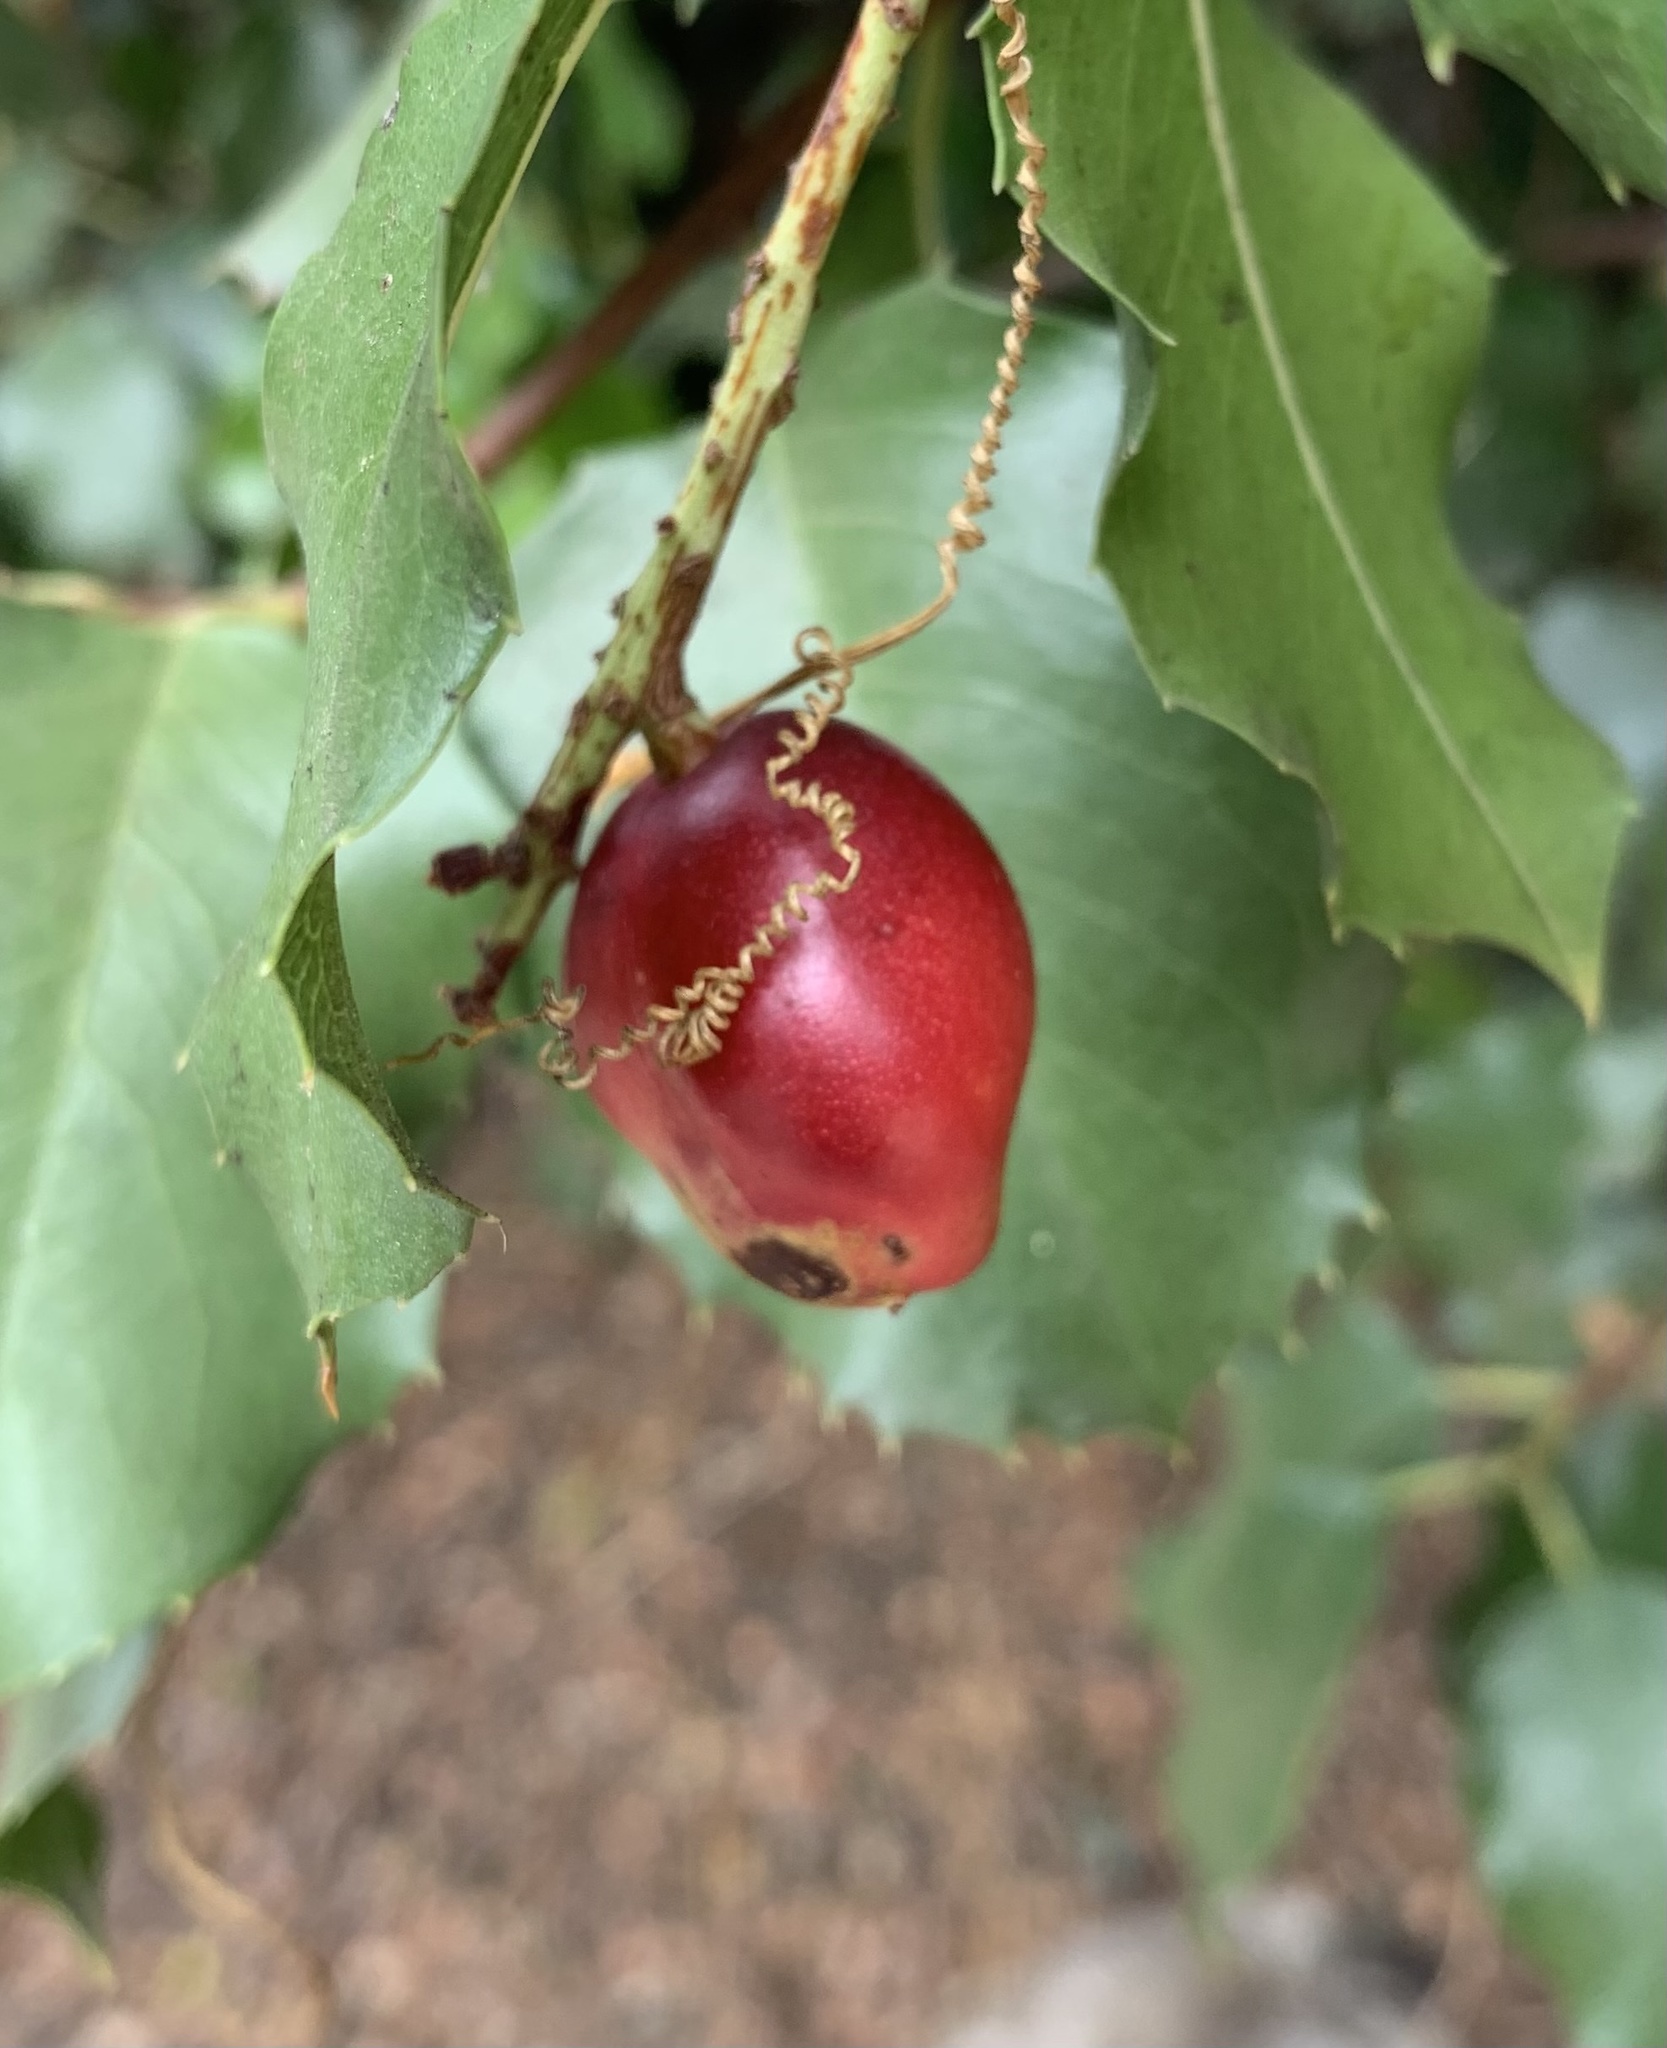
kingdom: Plantae
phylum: Tracheophyta
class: Magnoliopsida
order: Rosales
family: Rosaceae
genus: Prunus
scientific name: Prunus ilicifolia
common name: Hollyleaf cherry
